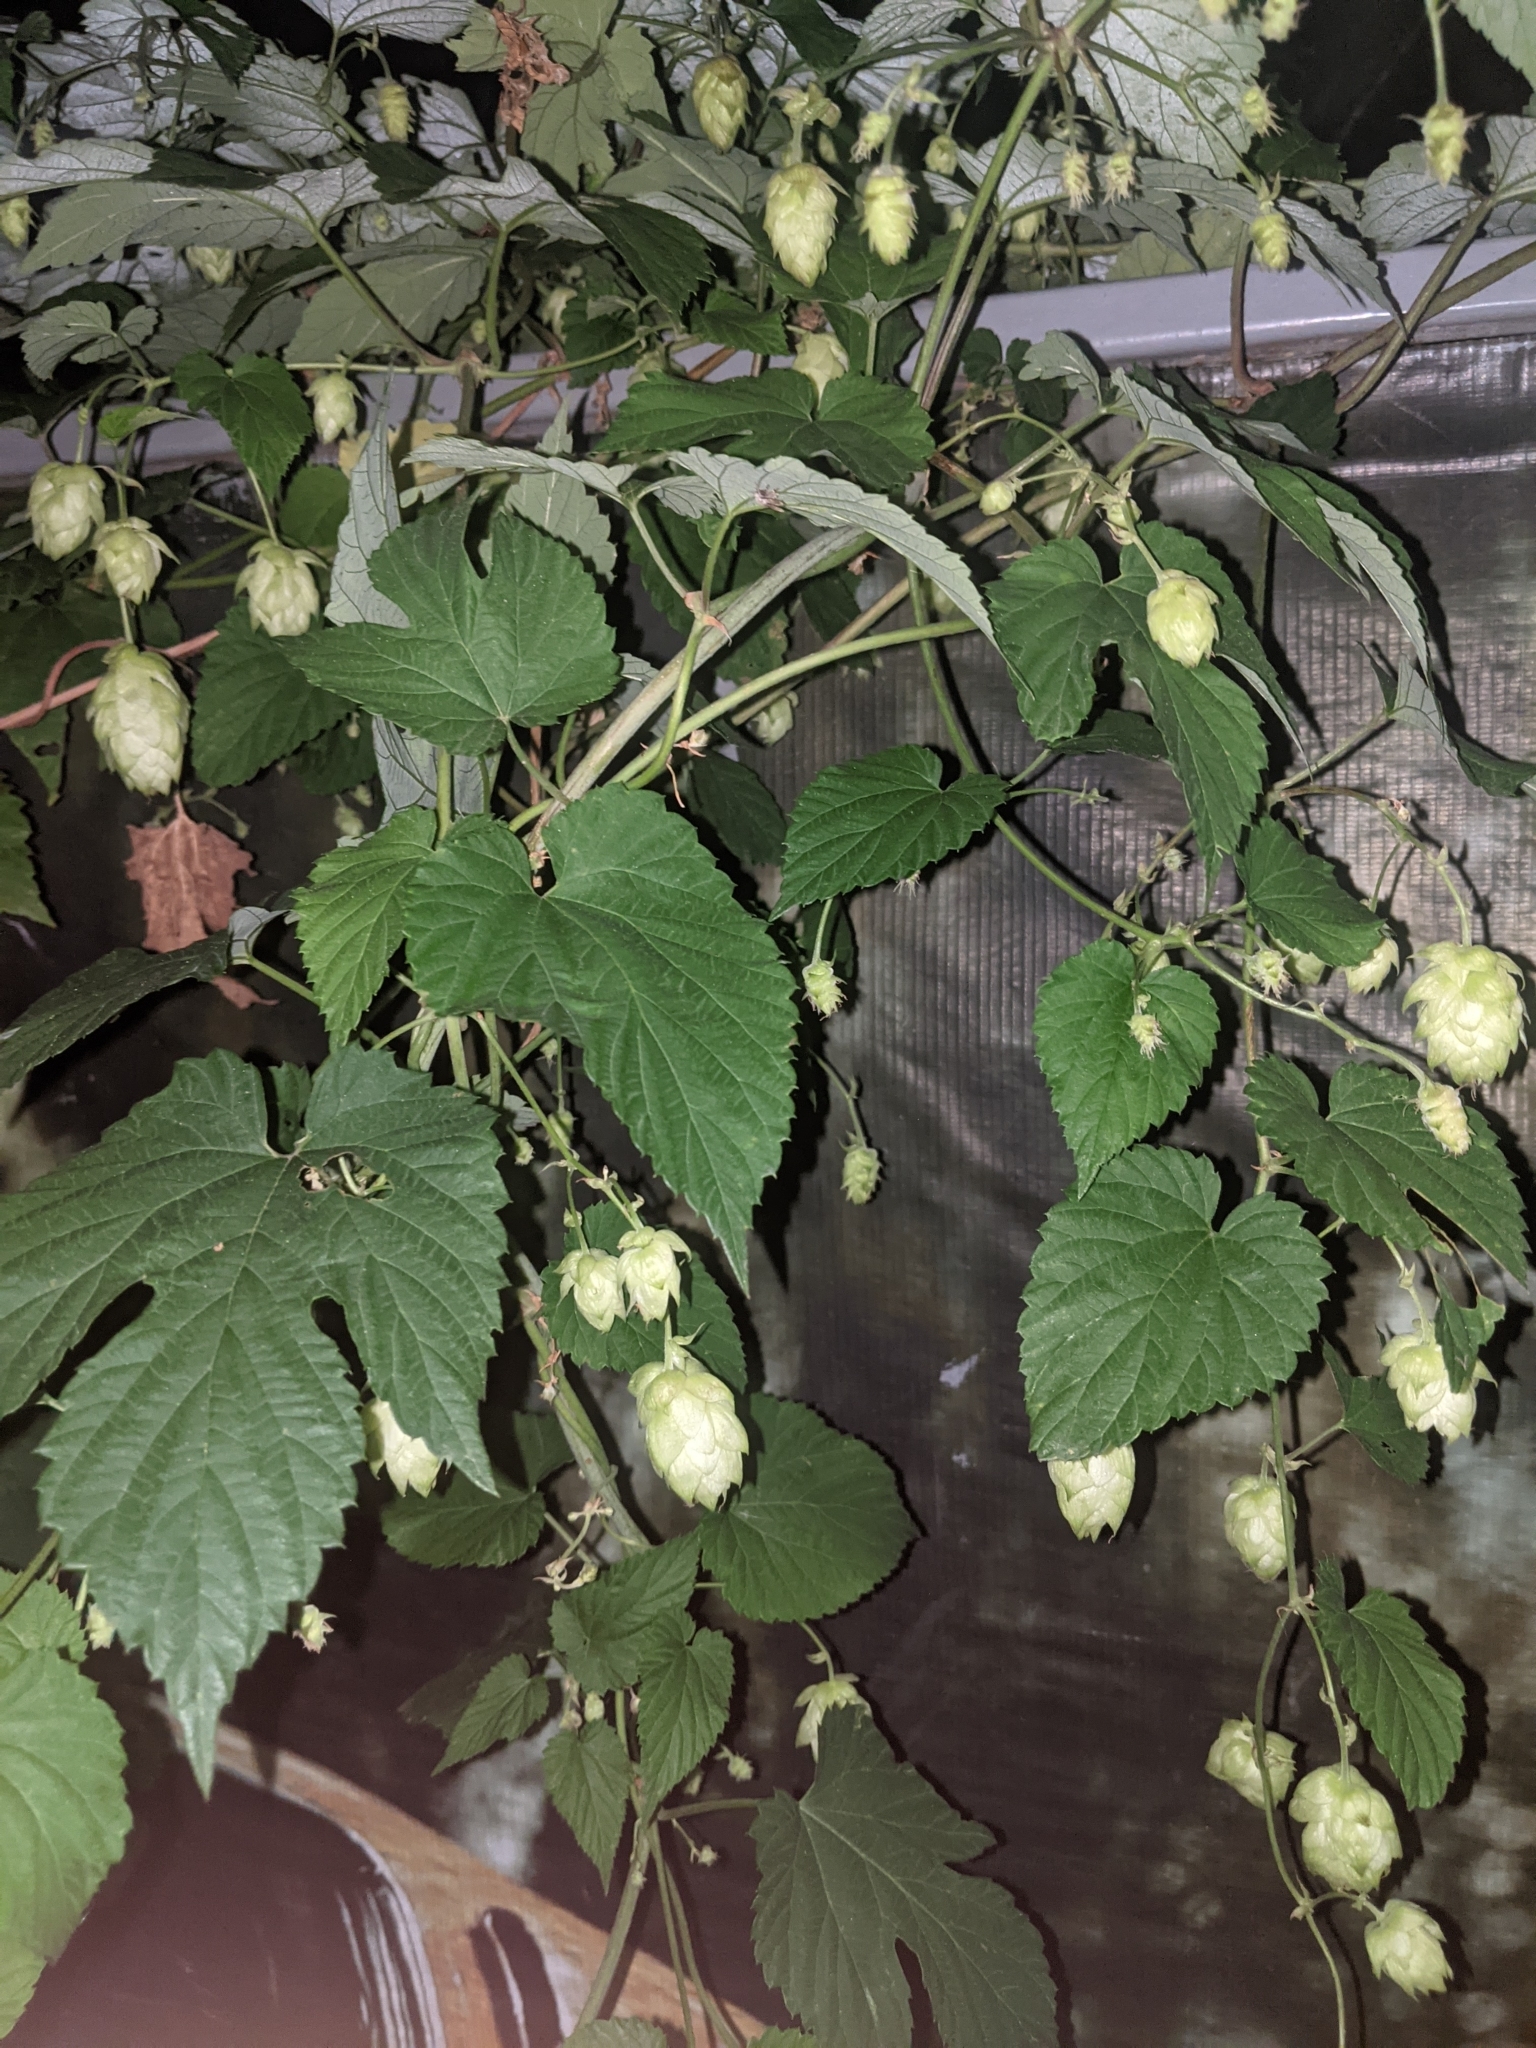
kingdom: Plantae
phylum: Tracheophyta
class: Magnoliopsida
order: Rosales
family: Cannabaceae
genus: Humulus
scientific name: Humulus lupulus
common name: Hop
